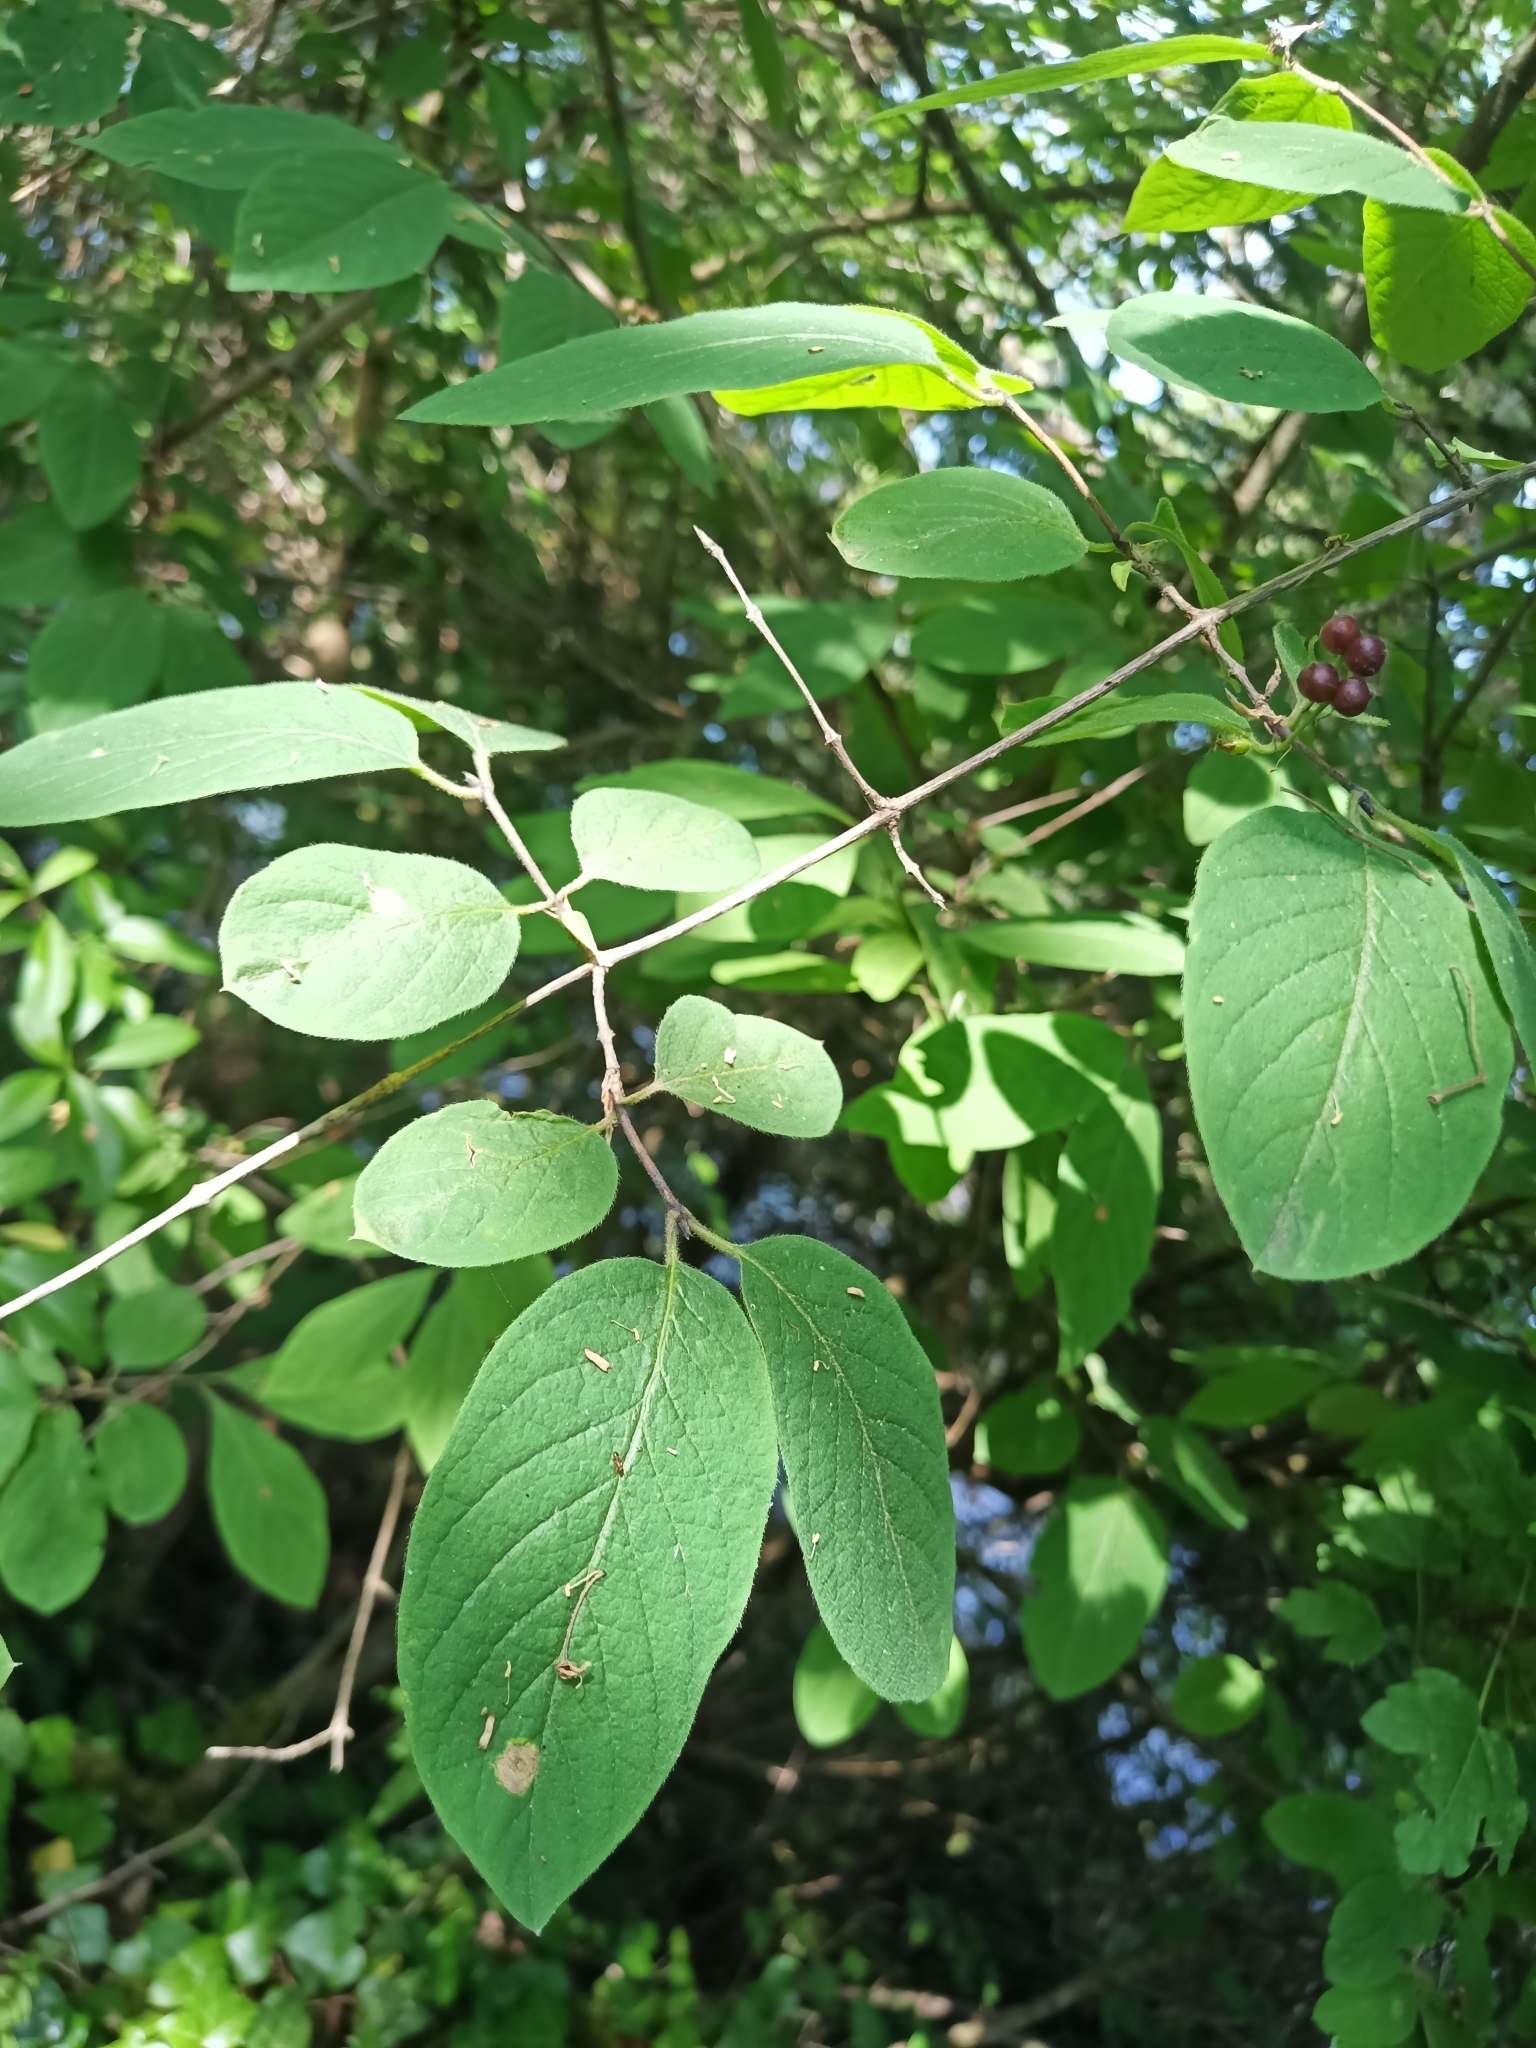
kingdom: Plantae
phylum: Tracheophyta
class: Magnoliopsida
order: Dipsacales
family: Caprifoliaceae
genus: Lonicera
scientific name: Lonicera xylosteum
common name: Fly honeysuckle
